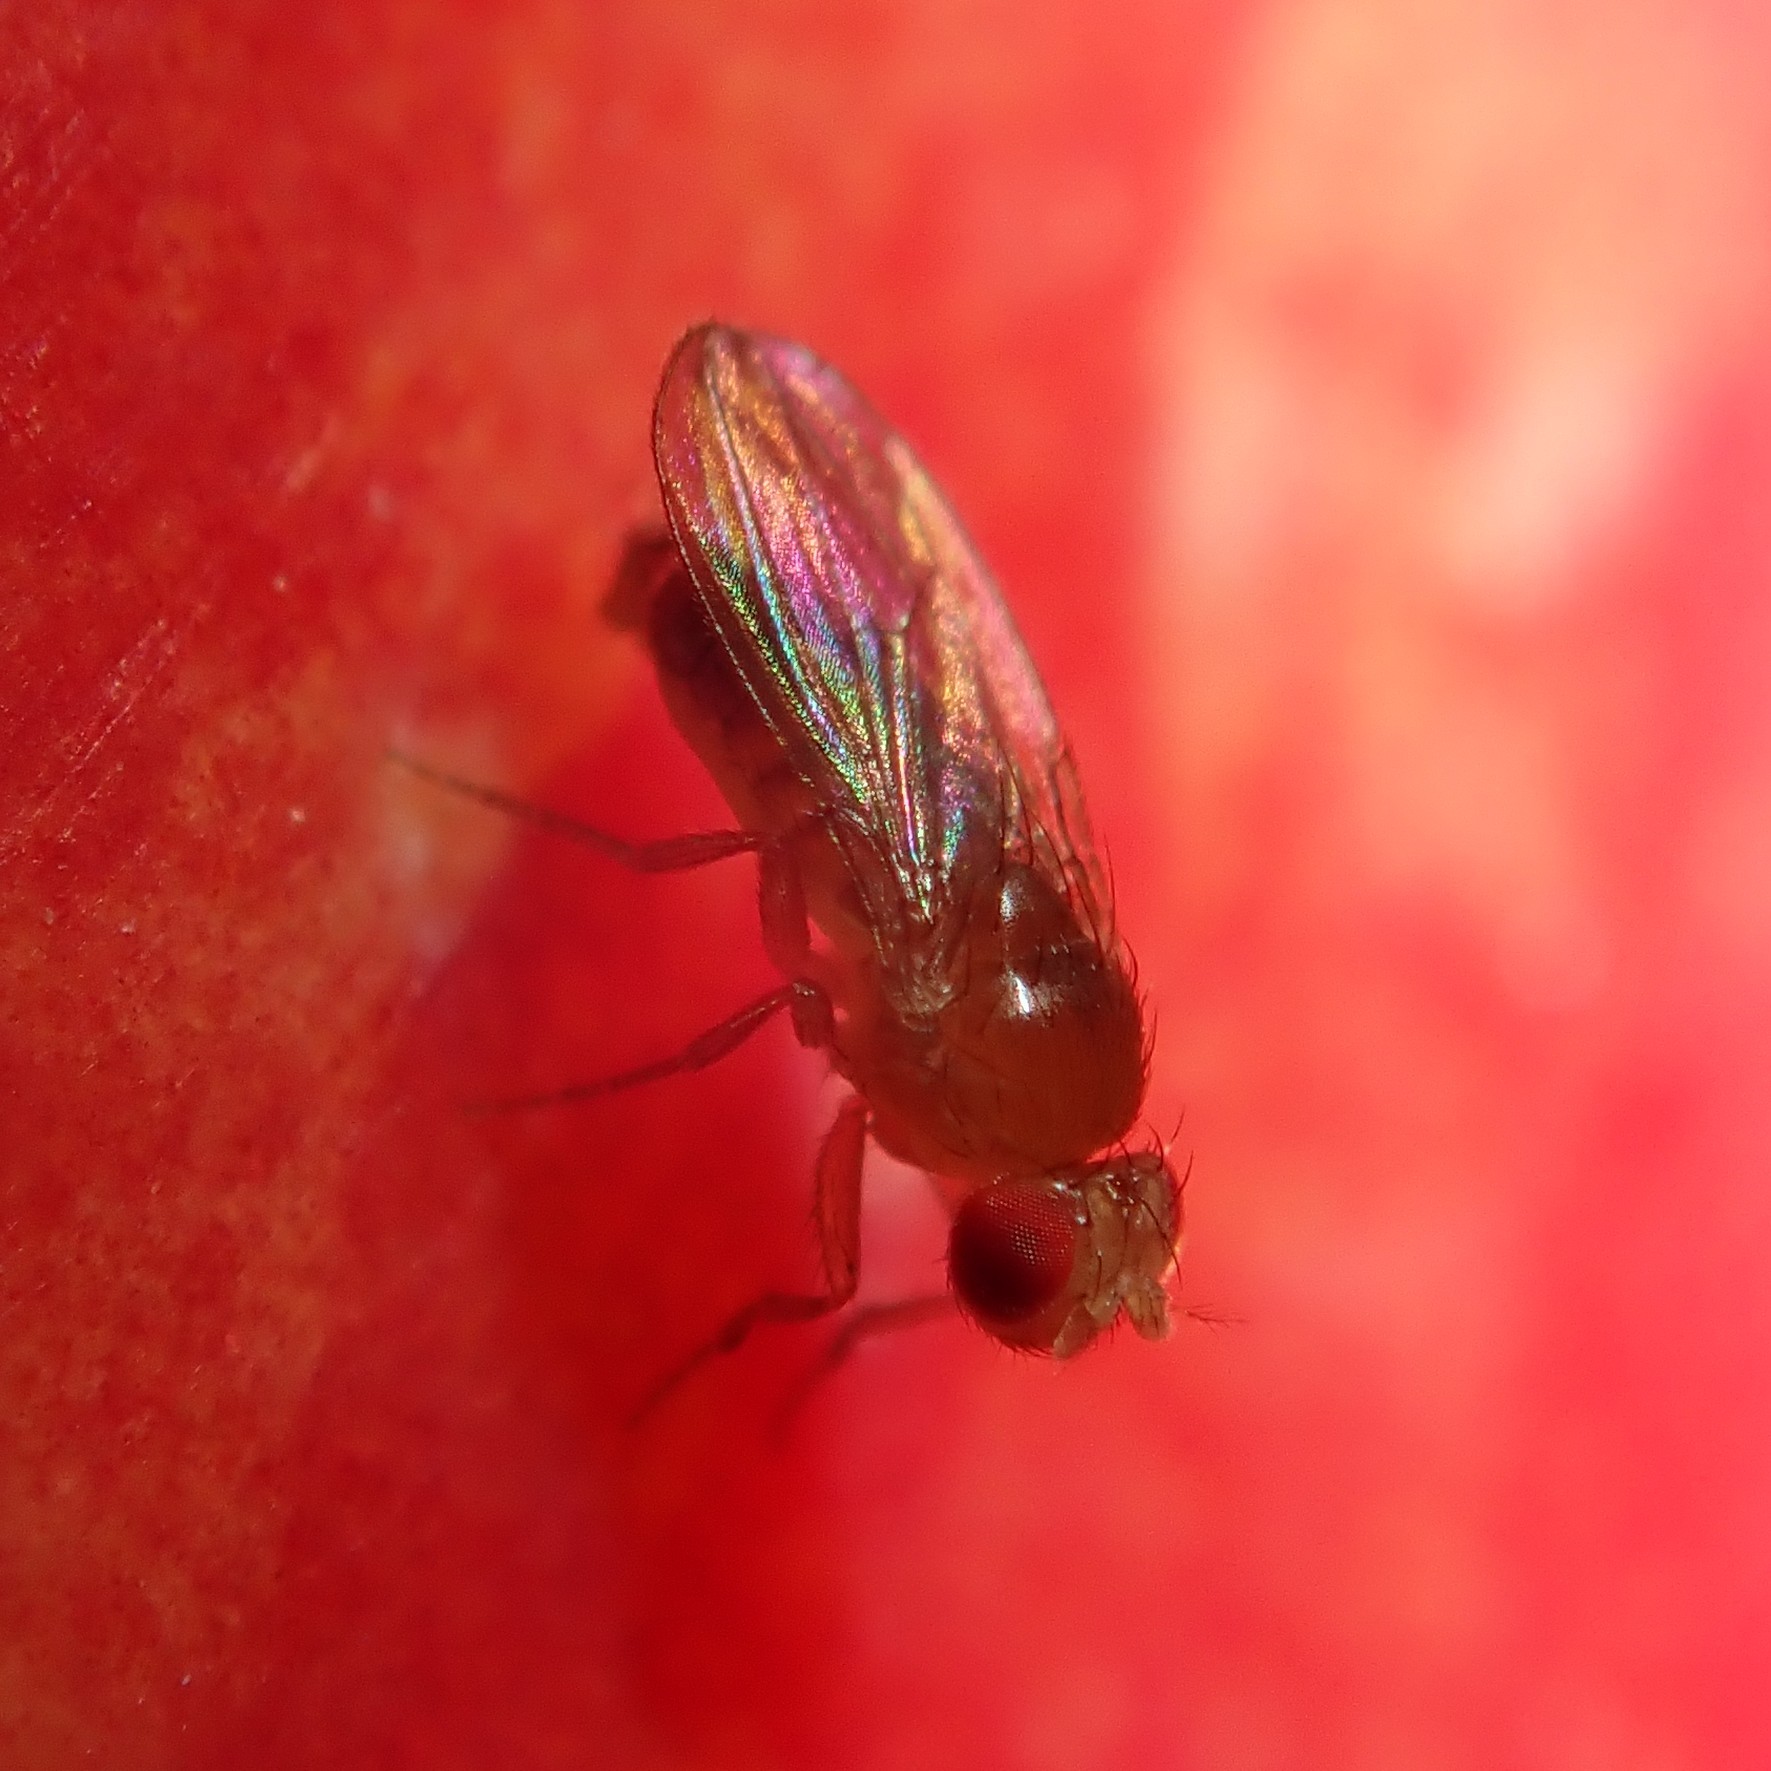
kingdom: Animalia
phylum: Arthropoda
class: Insecta
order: Diptera
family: Drosophilidae
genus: Drosophila
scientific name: Drosophila melanogaster
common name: Pomace fly
